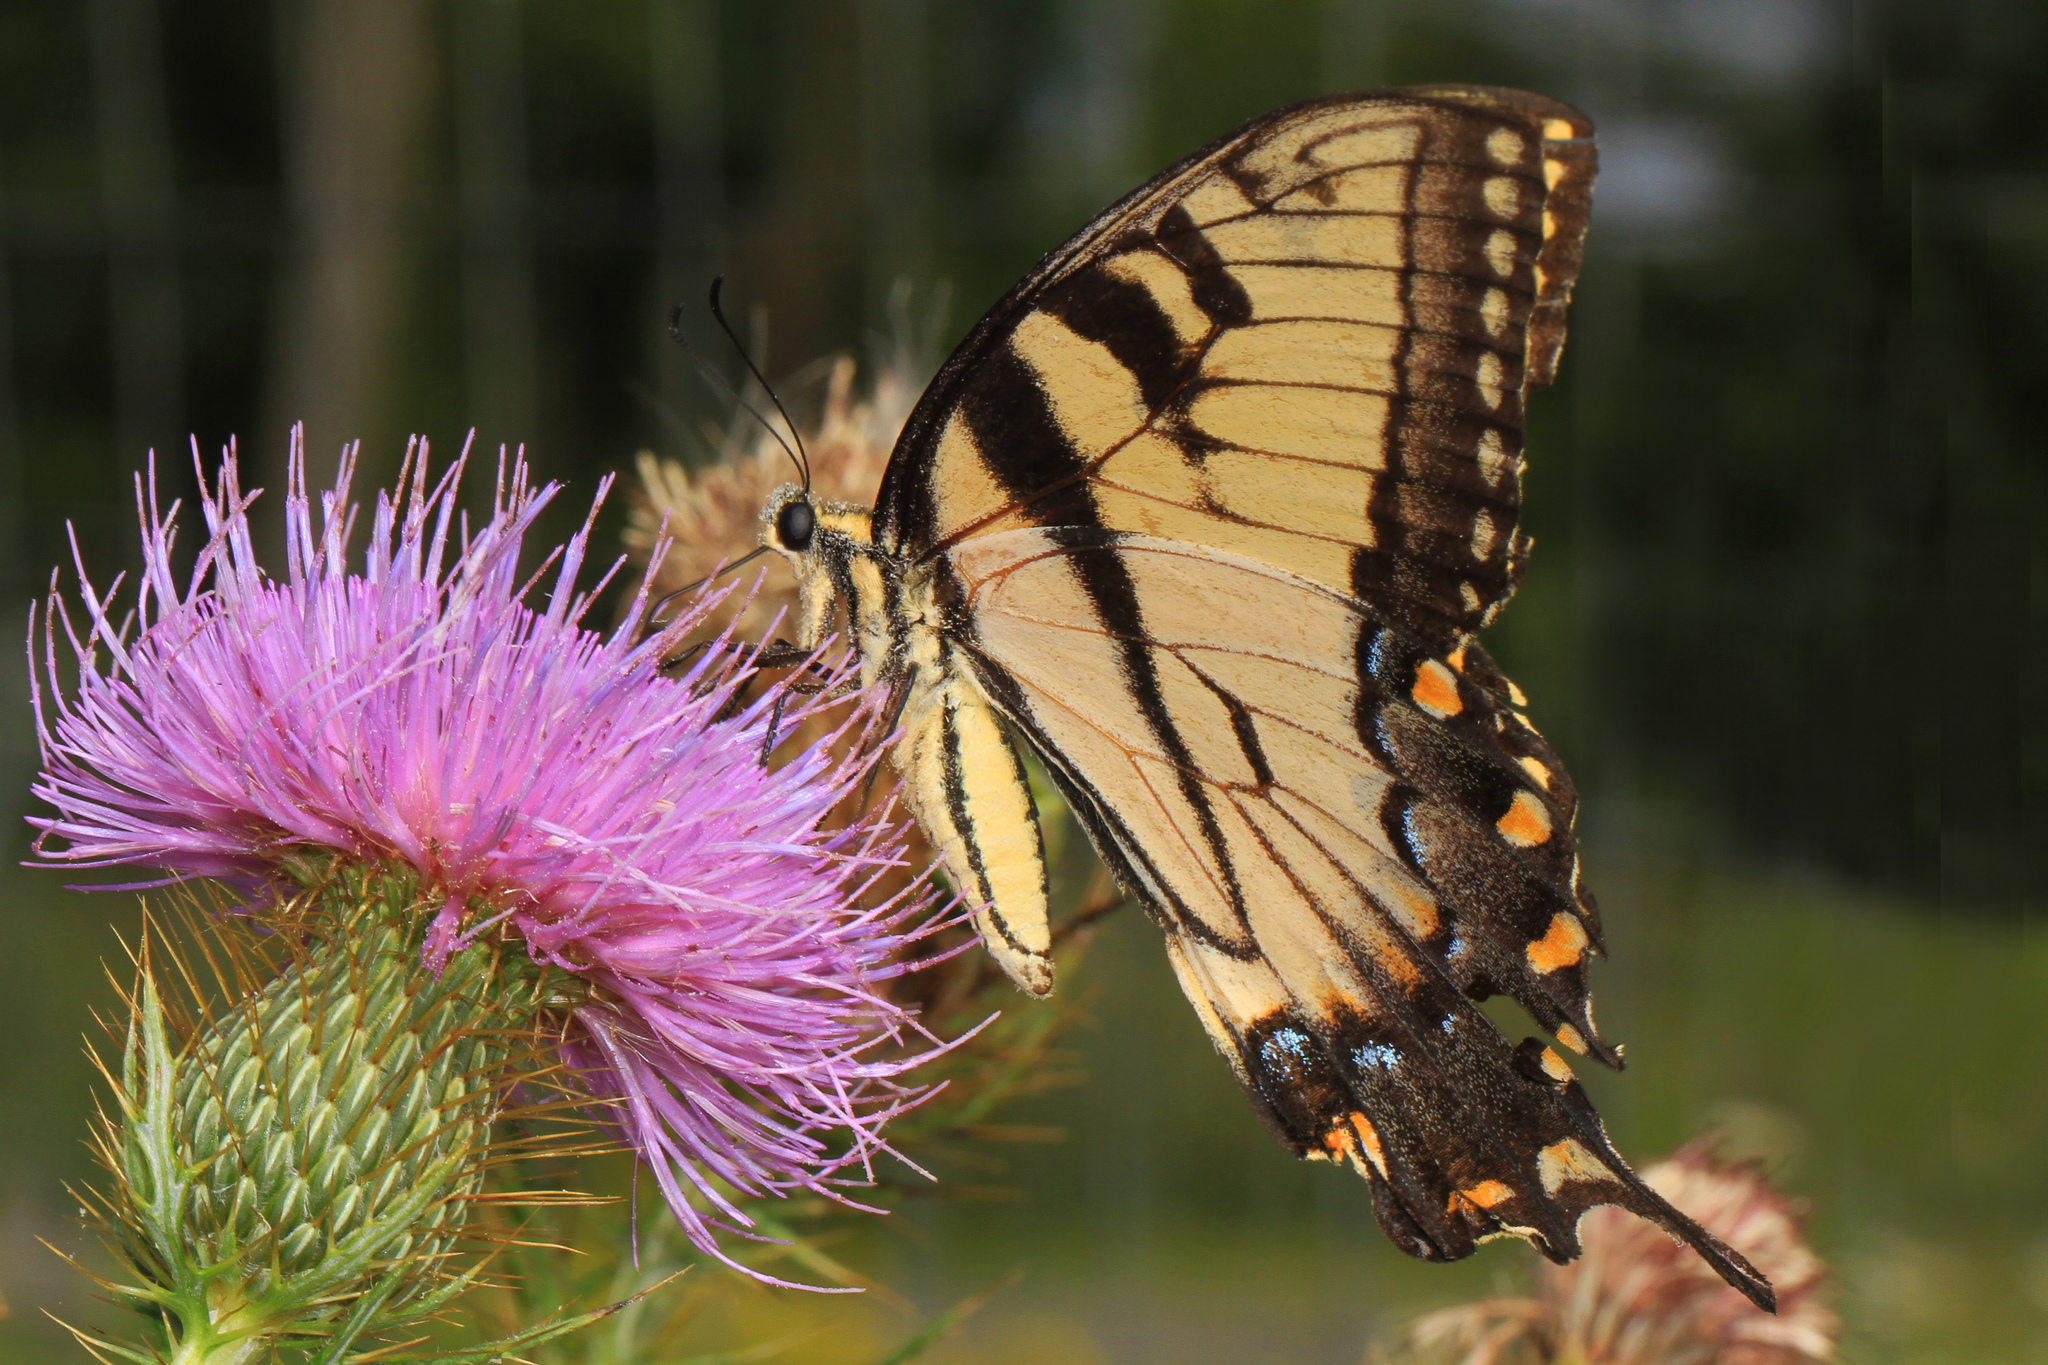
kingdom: Animalia
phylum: Arthropoda
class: Insecta
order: Lepidoptera
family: Papilionidae
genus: Papilio
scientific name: Papilio glaucus
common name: Tiger swallowtail
